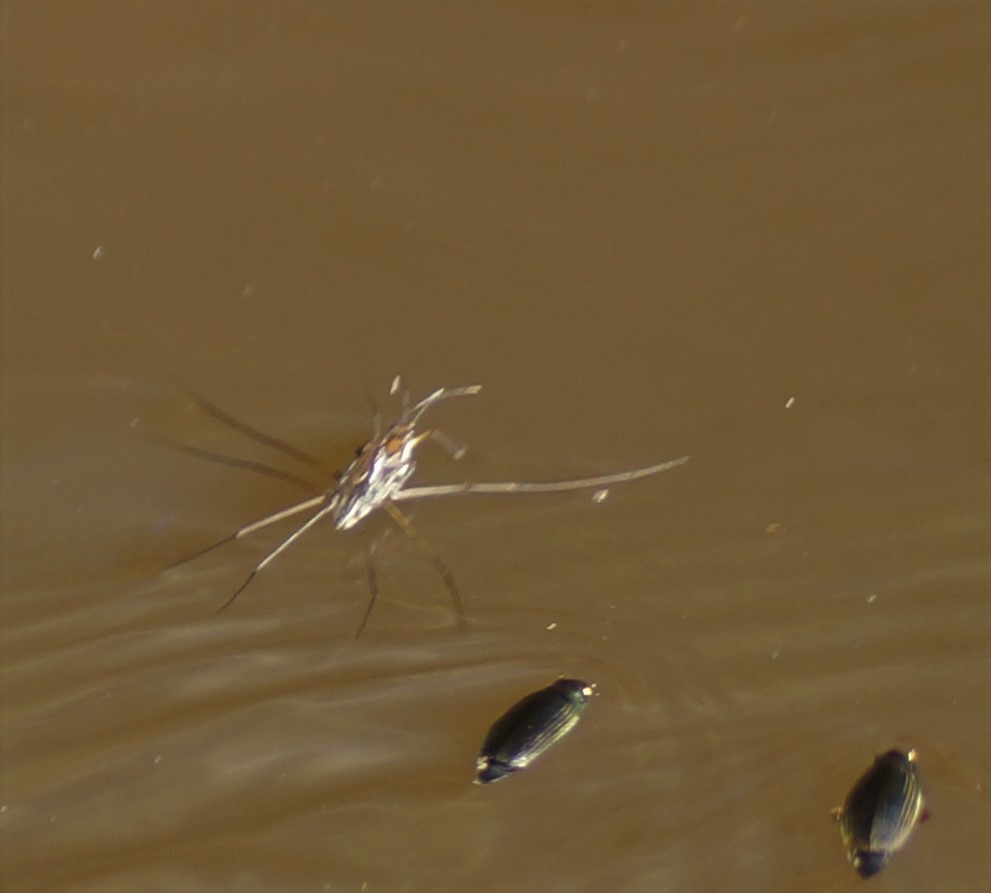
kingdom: Animalia
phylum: Arthropoda
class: Insecta
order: Hemiptera
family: Gerridae
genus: Tenagogerris
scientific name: Tenagogerris
